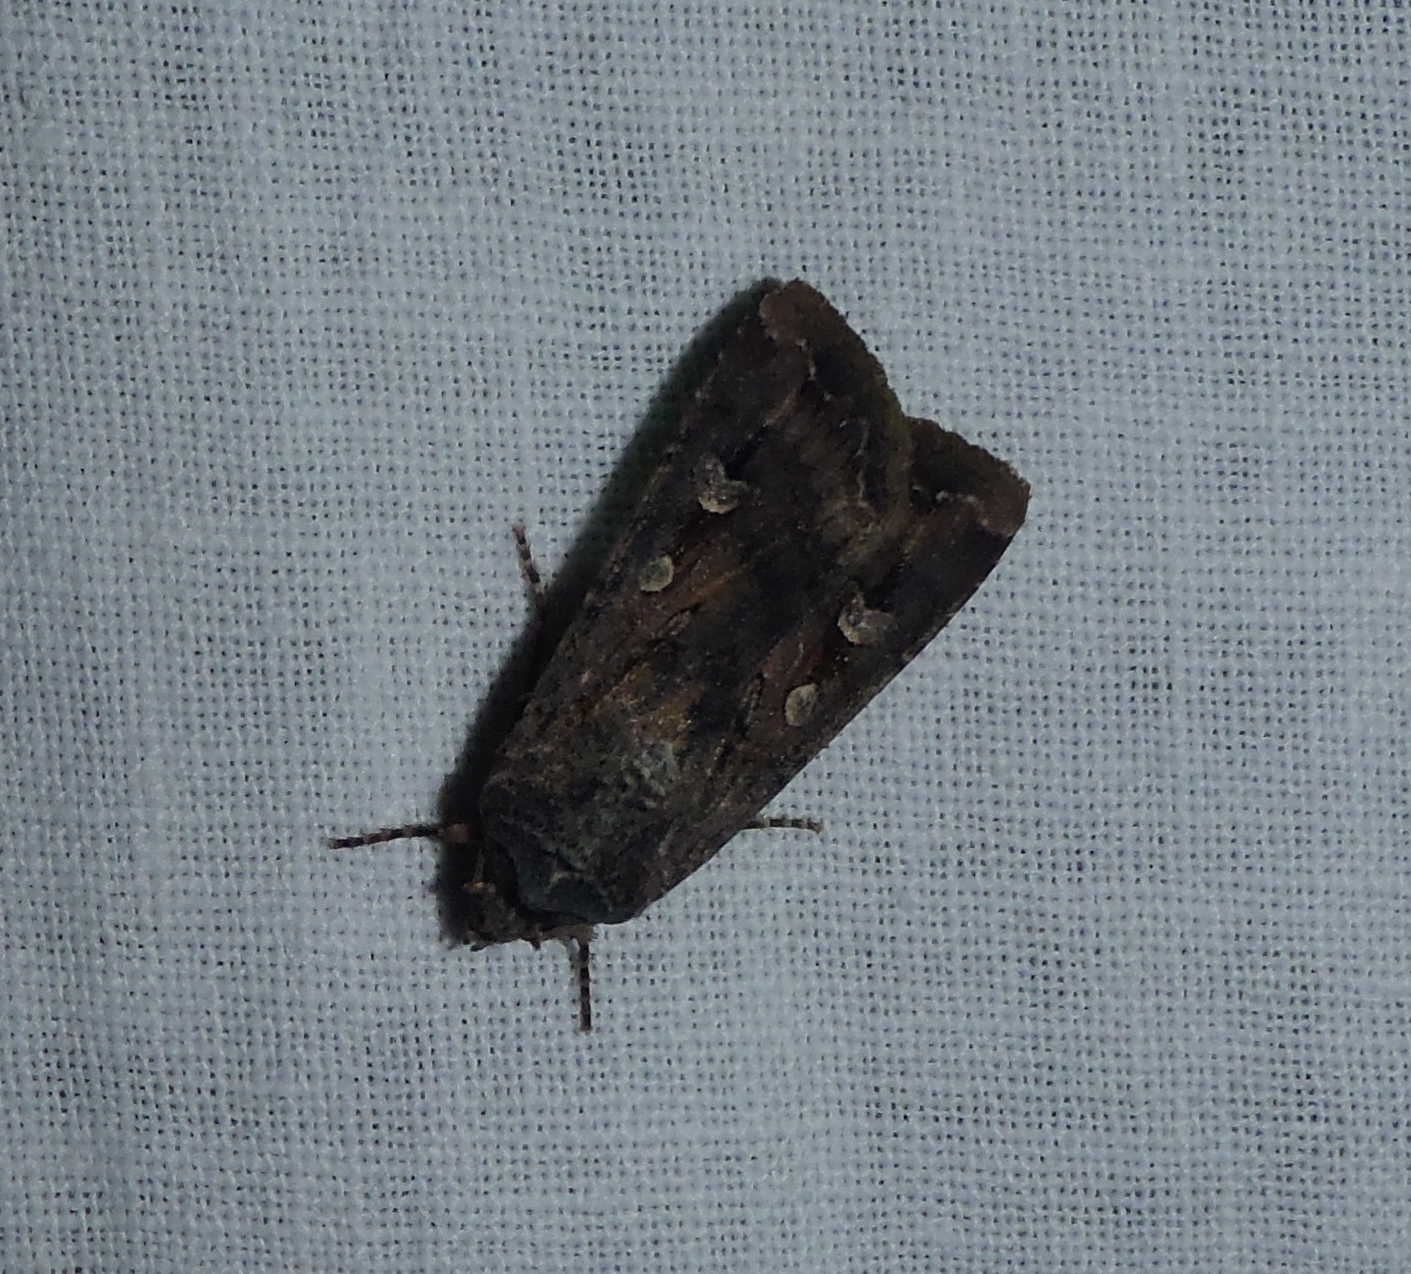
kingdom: Animalia
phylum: Arthropoda
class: Insecta
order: Lepidoptera
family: Noctuidae
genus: Agrotis
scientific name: Agrotis infusa
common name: Bogong moth
